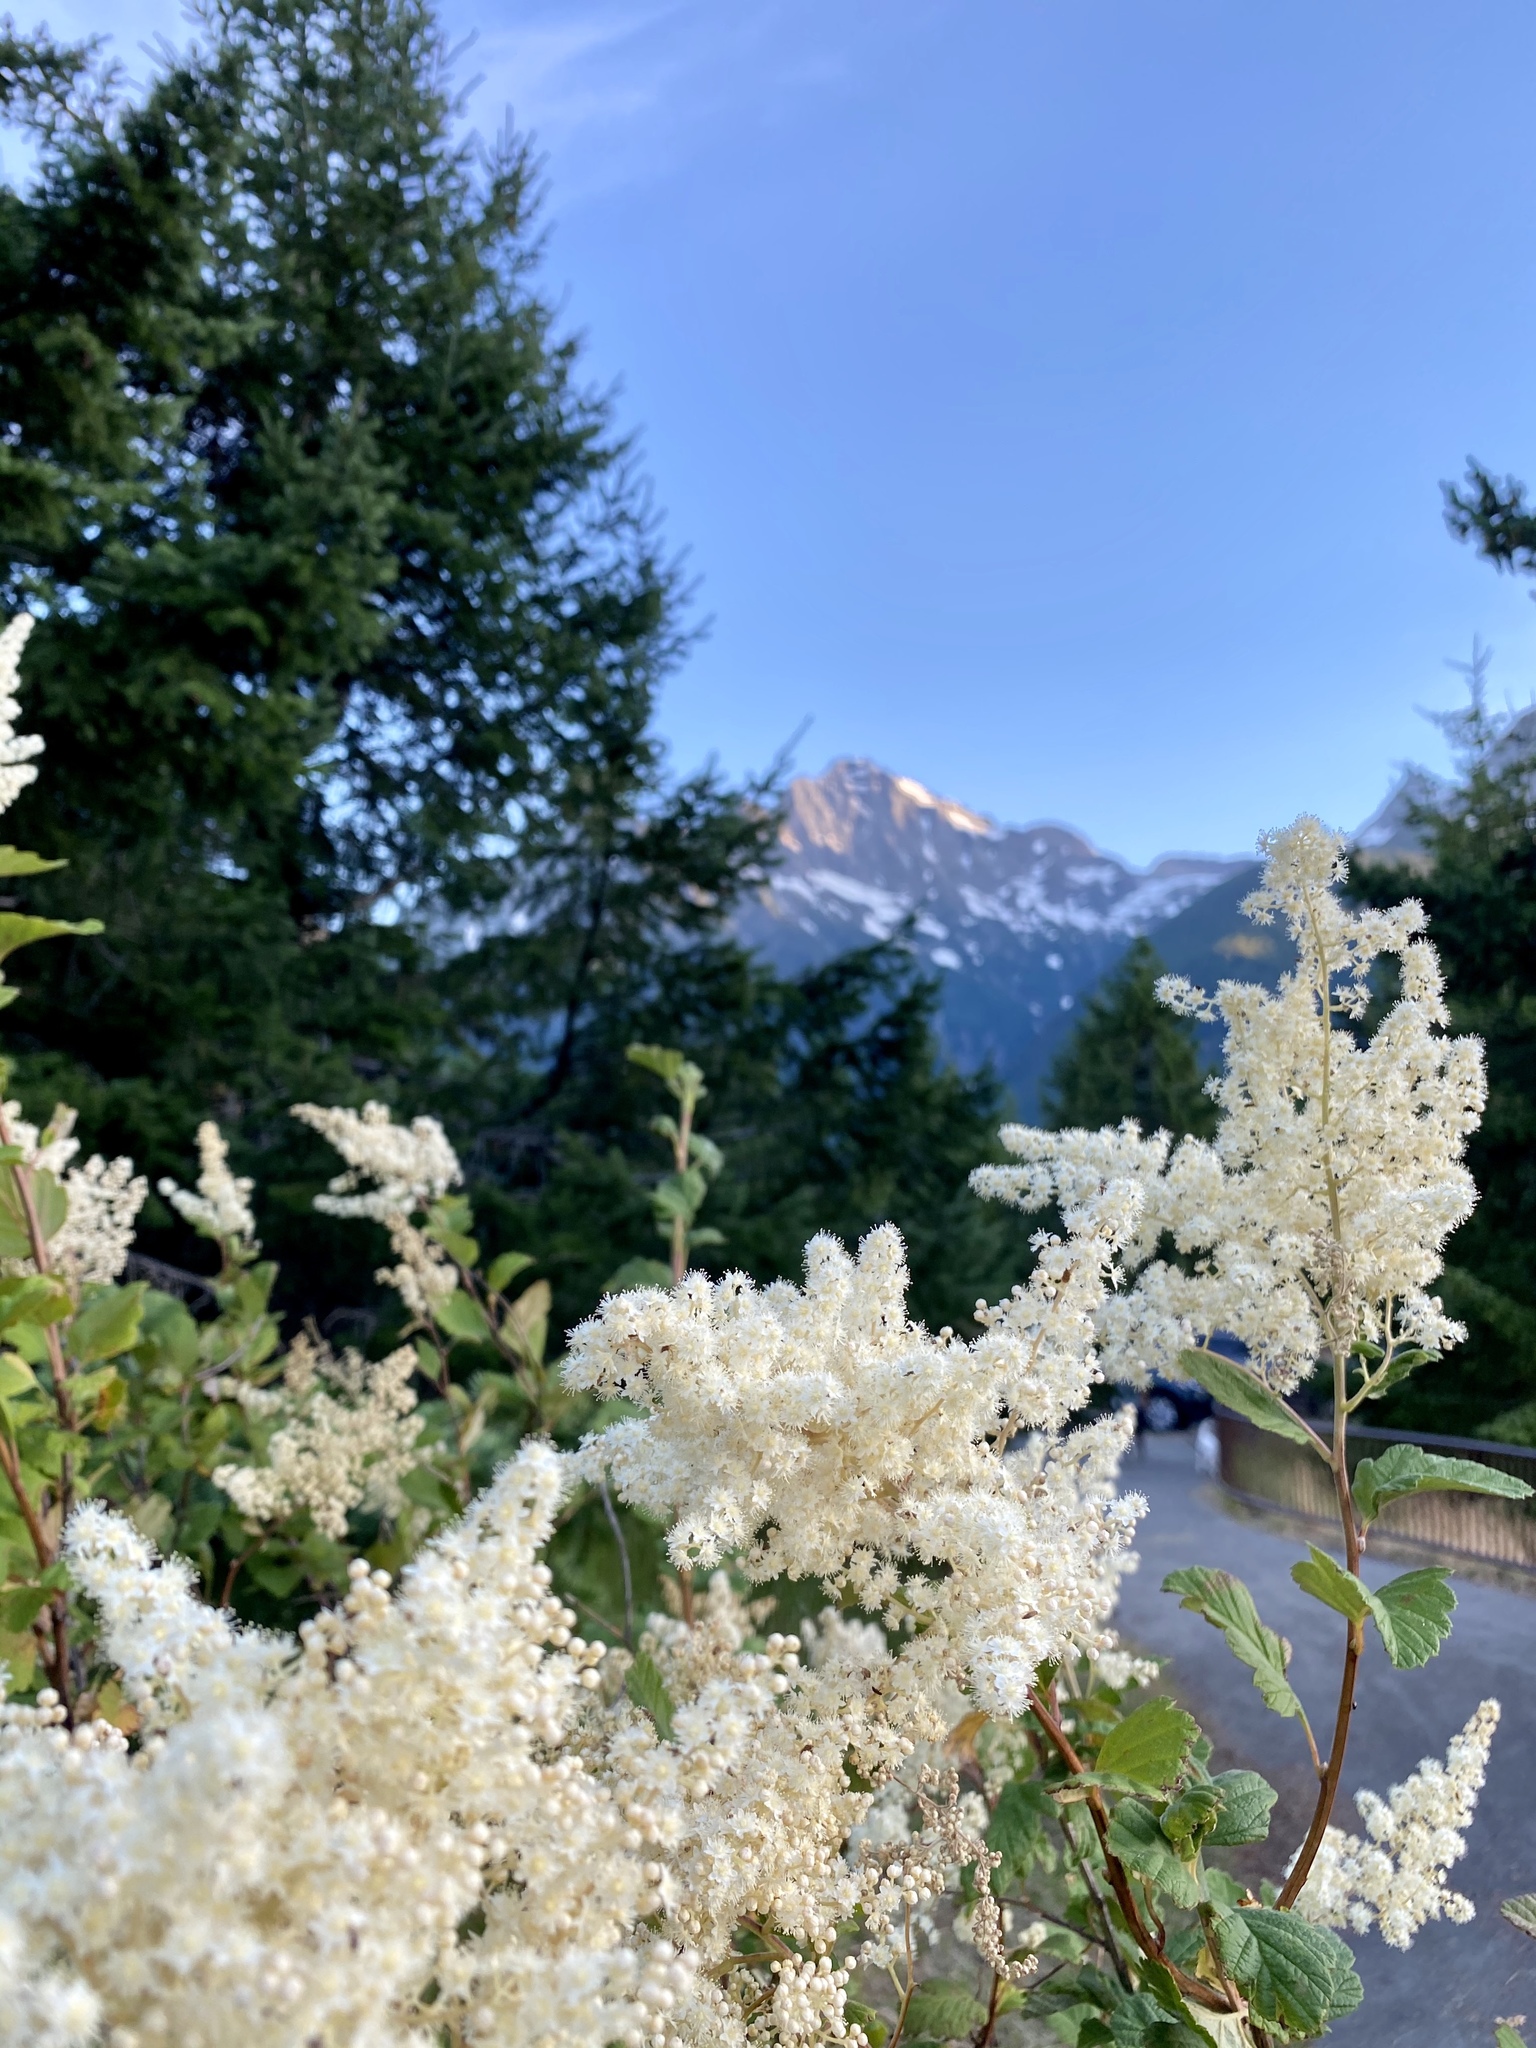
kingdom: Plantae
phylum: Tracheophyta
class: Magnoliopsida
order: Rosales
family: Rosaceae
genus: Holodiscus
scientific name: Holodiscus discolor
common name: Oceanspray
